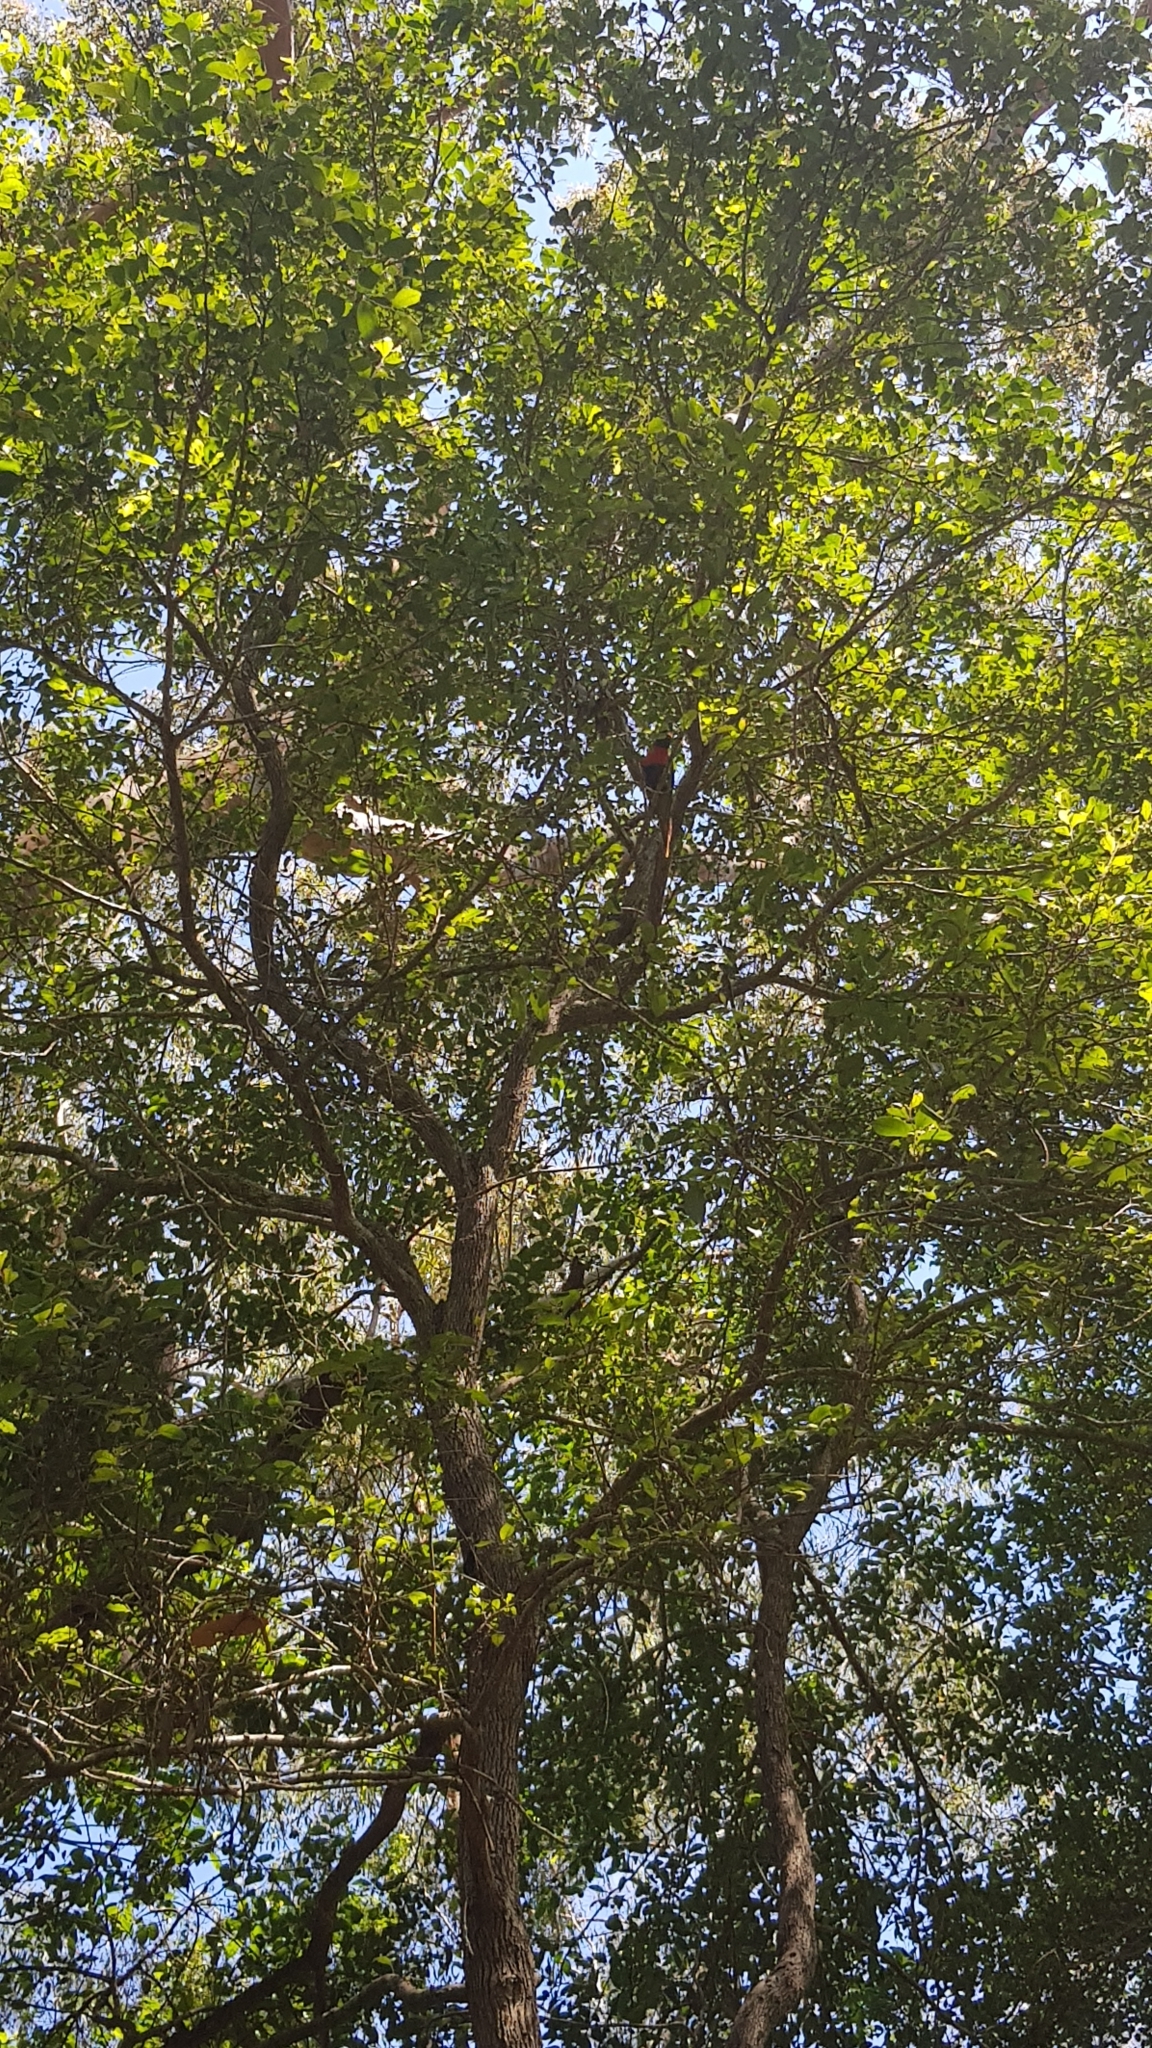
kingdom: Animalia
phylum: Chordata
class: Aves
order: Psittaciformes
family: Psittacidae
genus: Trichoglossus
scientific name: Trichoglossus haematodus
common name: Coconut lorikeet
